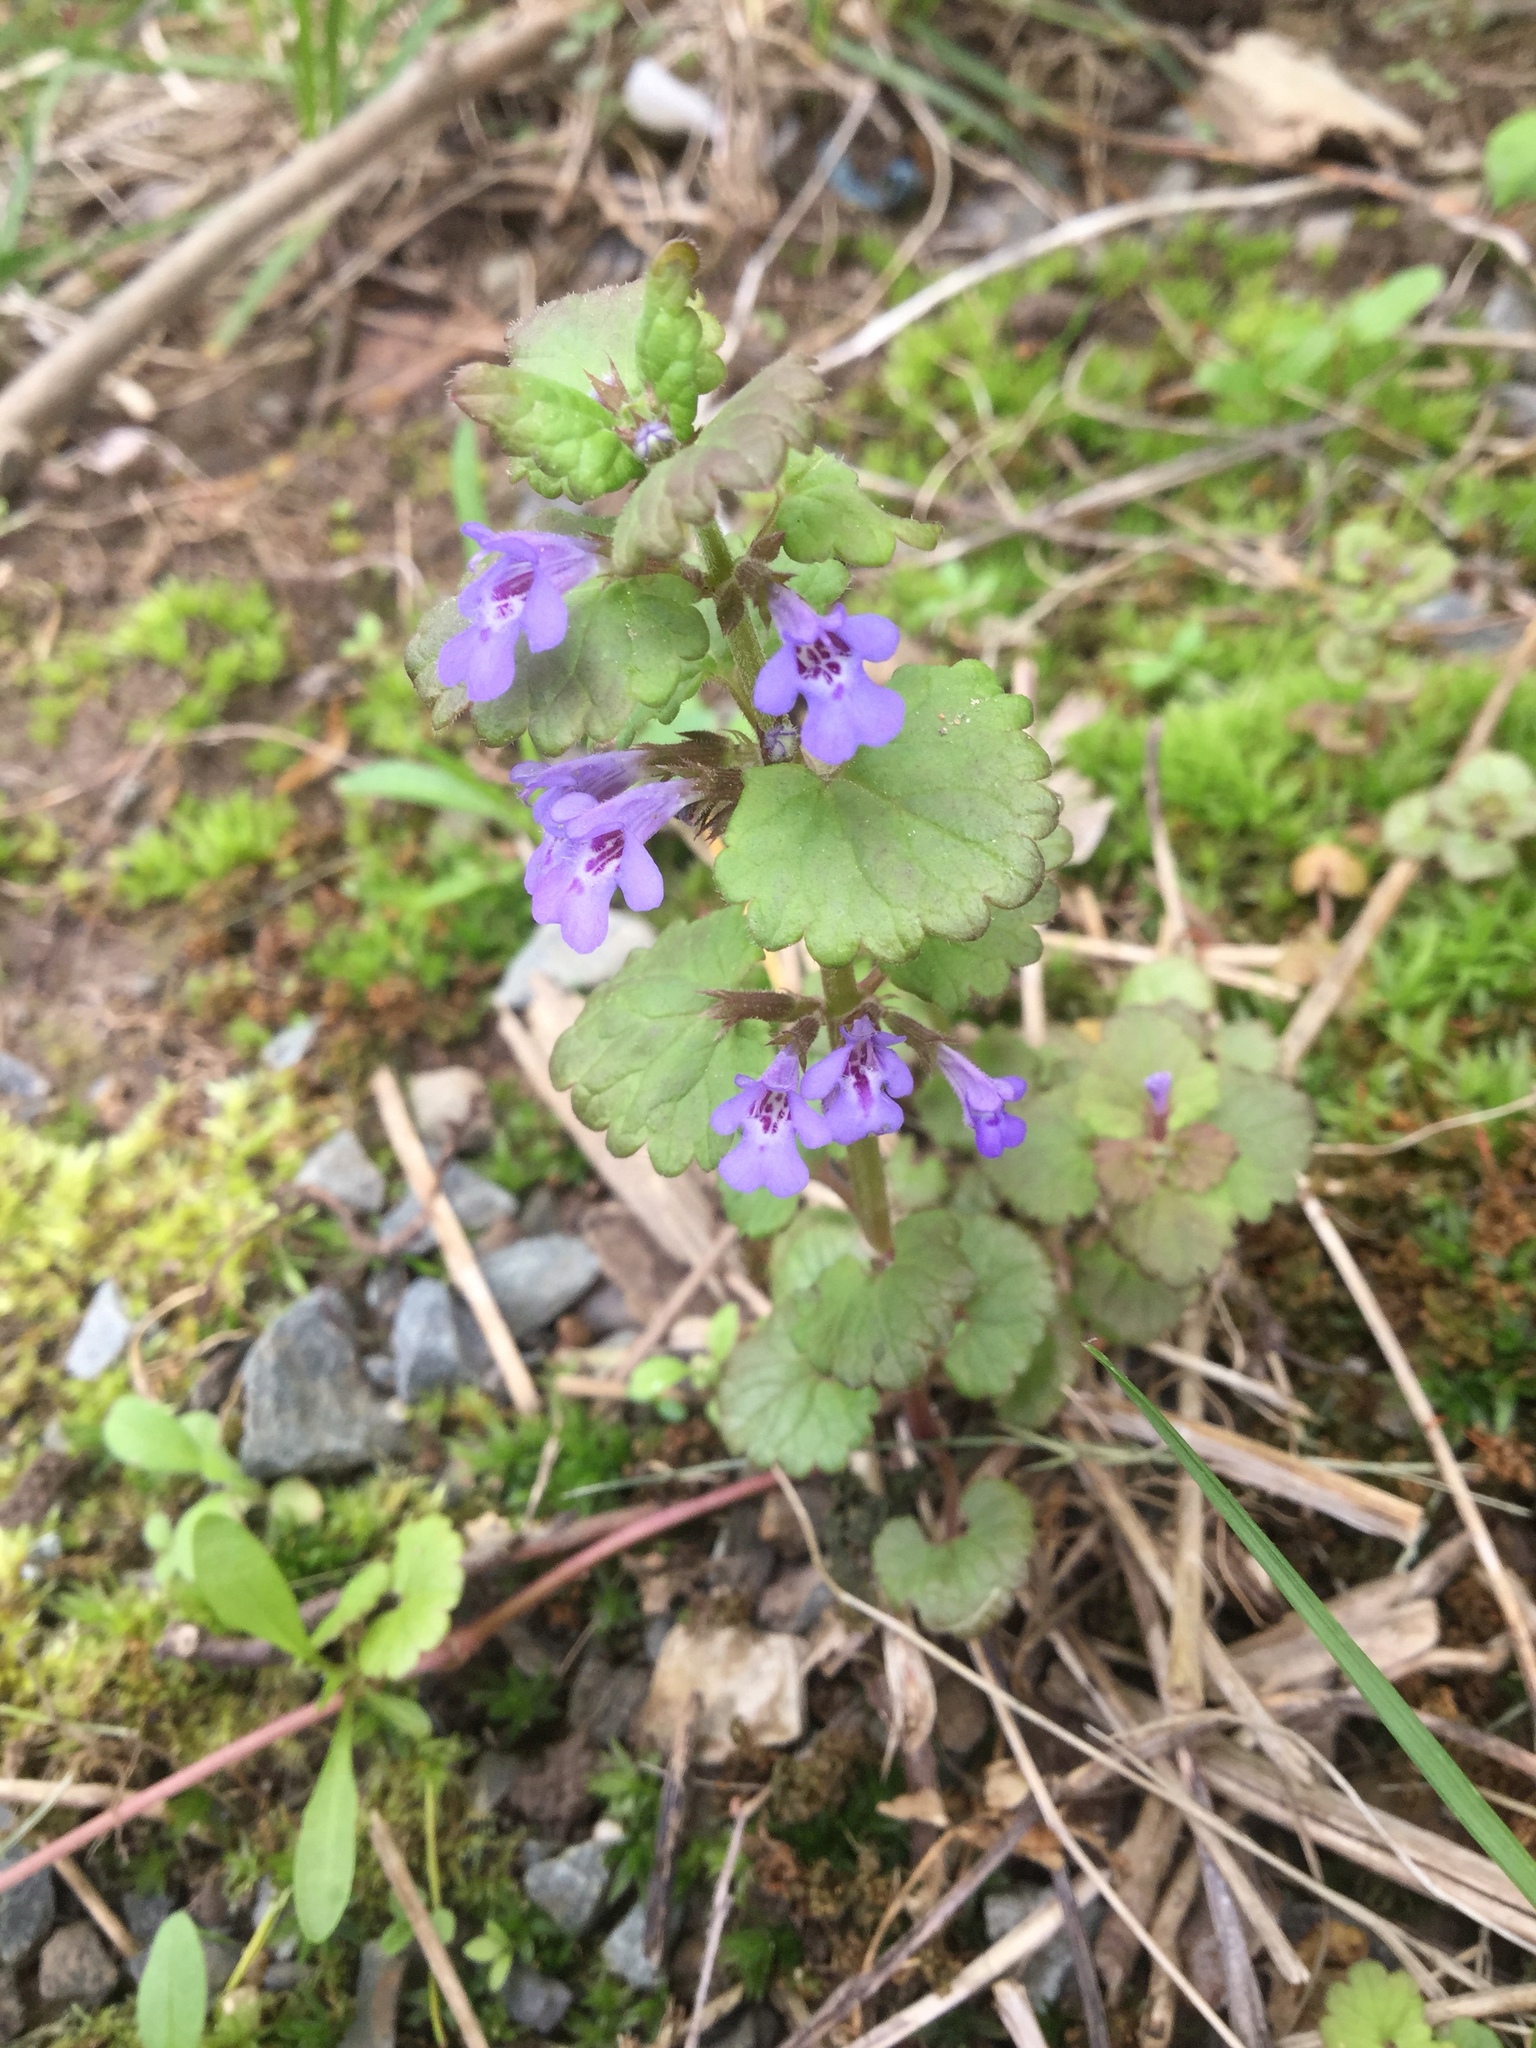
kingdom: Plantae
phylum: Tracheophyta
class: Magnoliopsida
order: Lamiales
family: Lamiaceae
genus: Glechoma
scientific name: Glechoma hederacea
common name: Ground ivy
